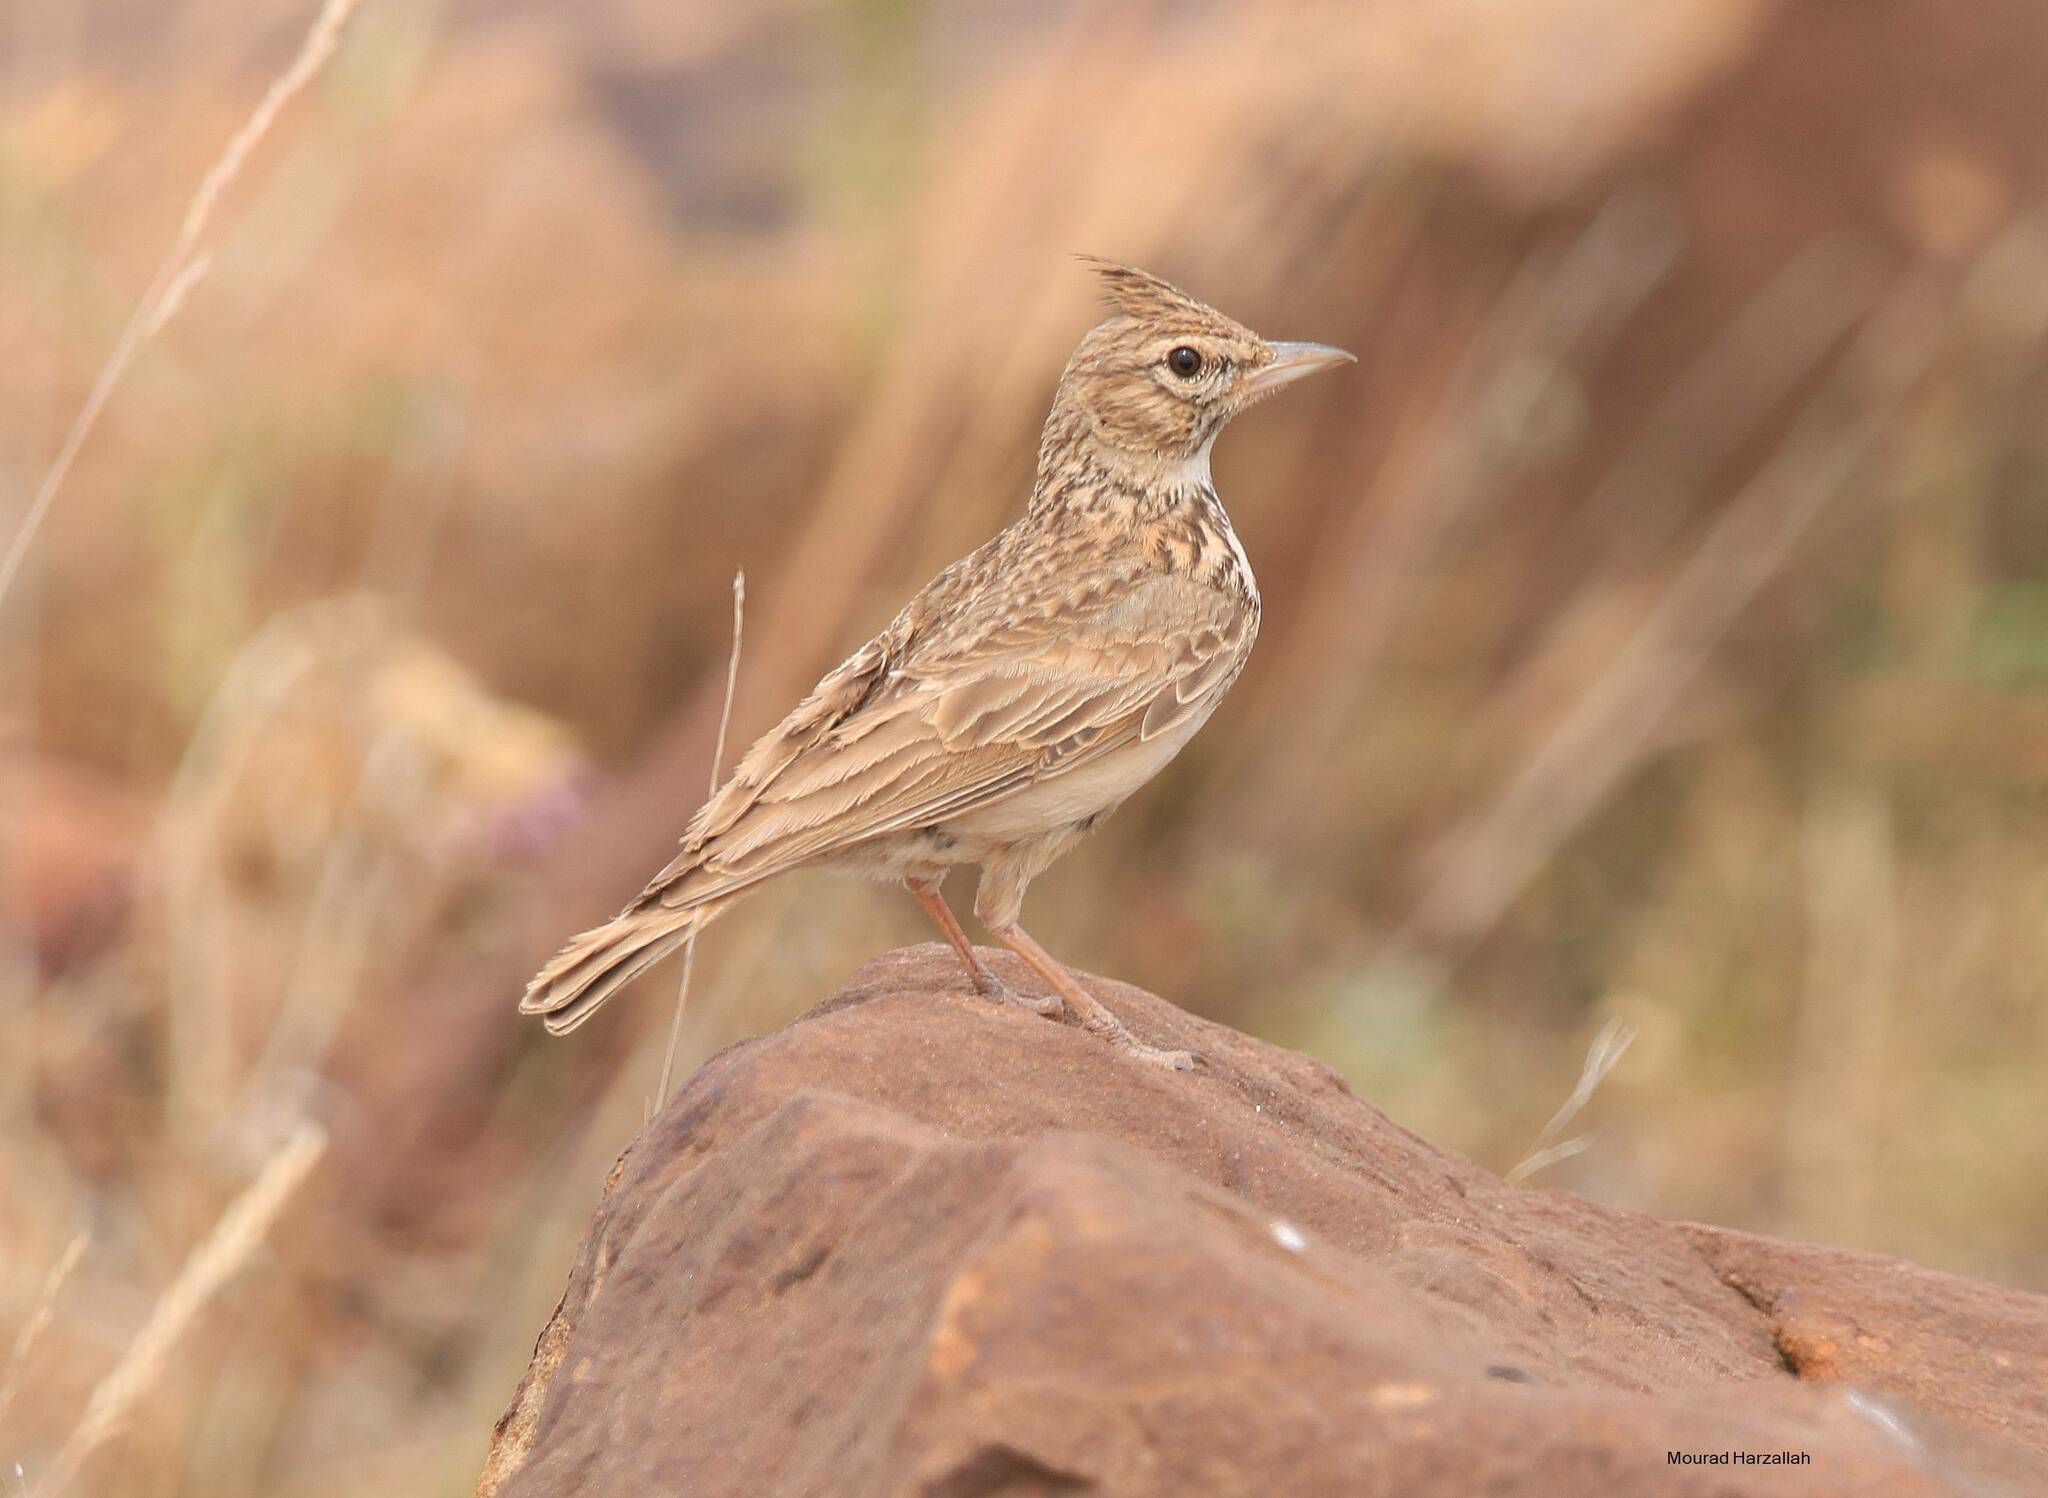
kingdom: Animalia
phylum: Chordata
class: Aves
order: Passeriformes
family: Alaudidae
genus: Galerida
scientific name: Galerida theklae
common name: Thekla lark
